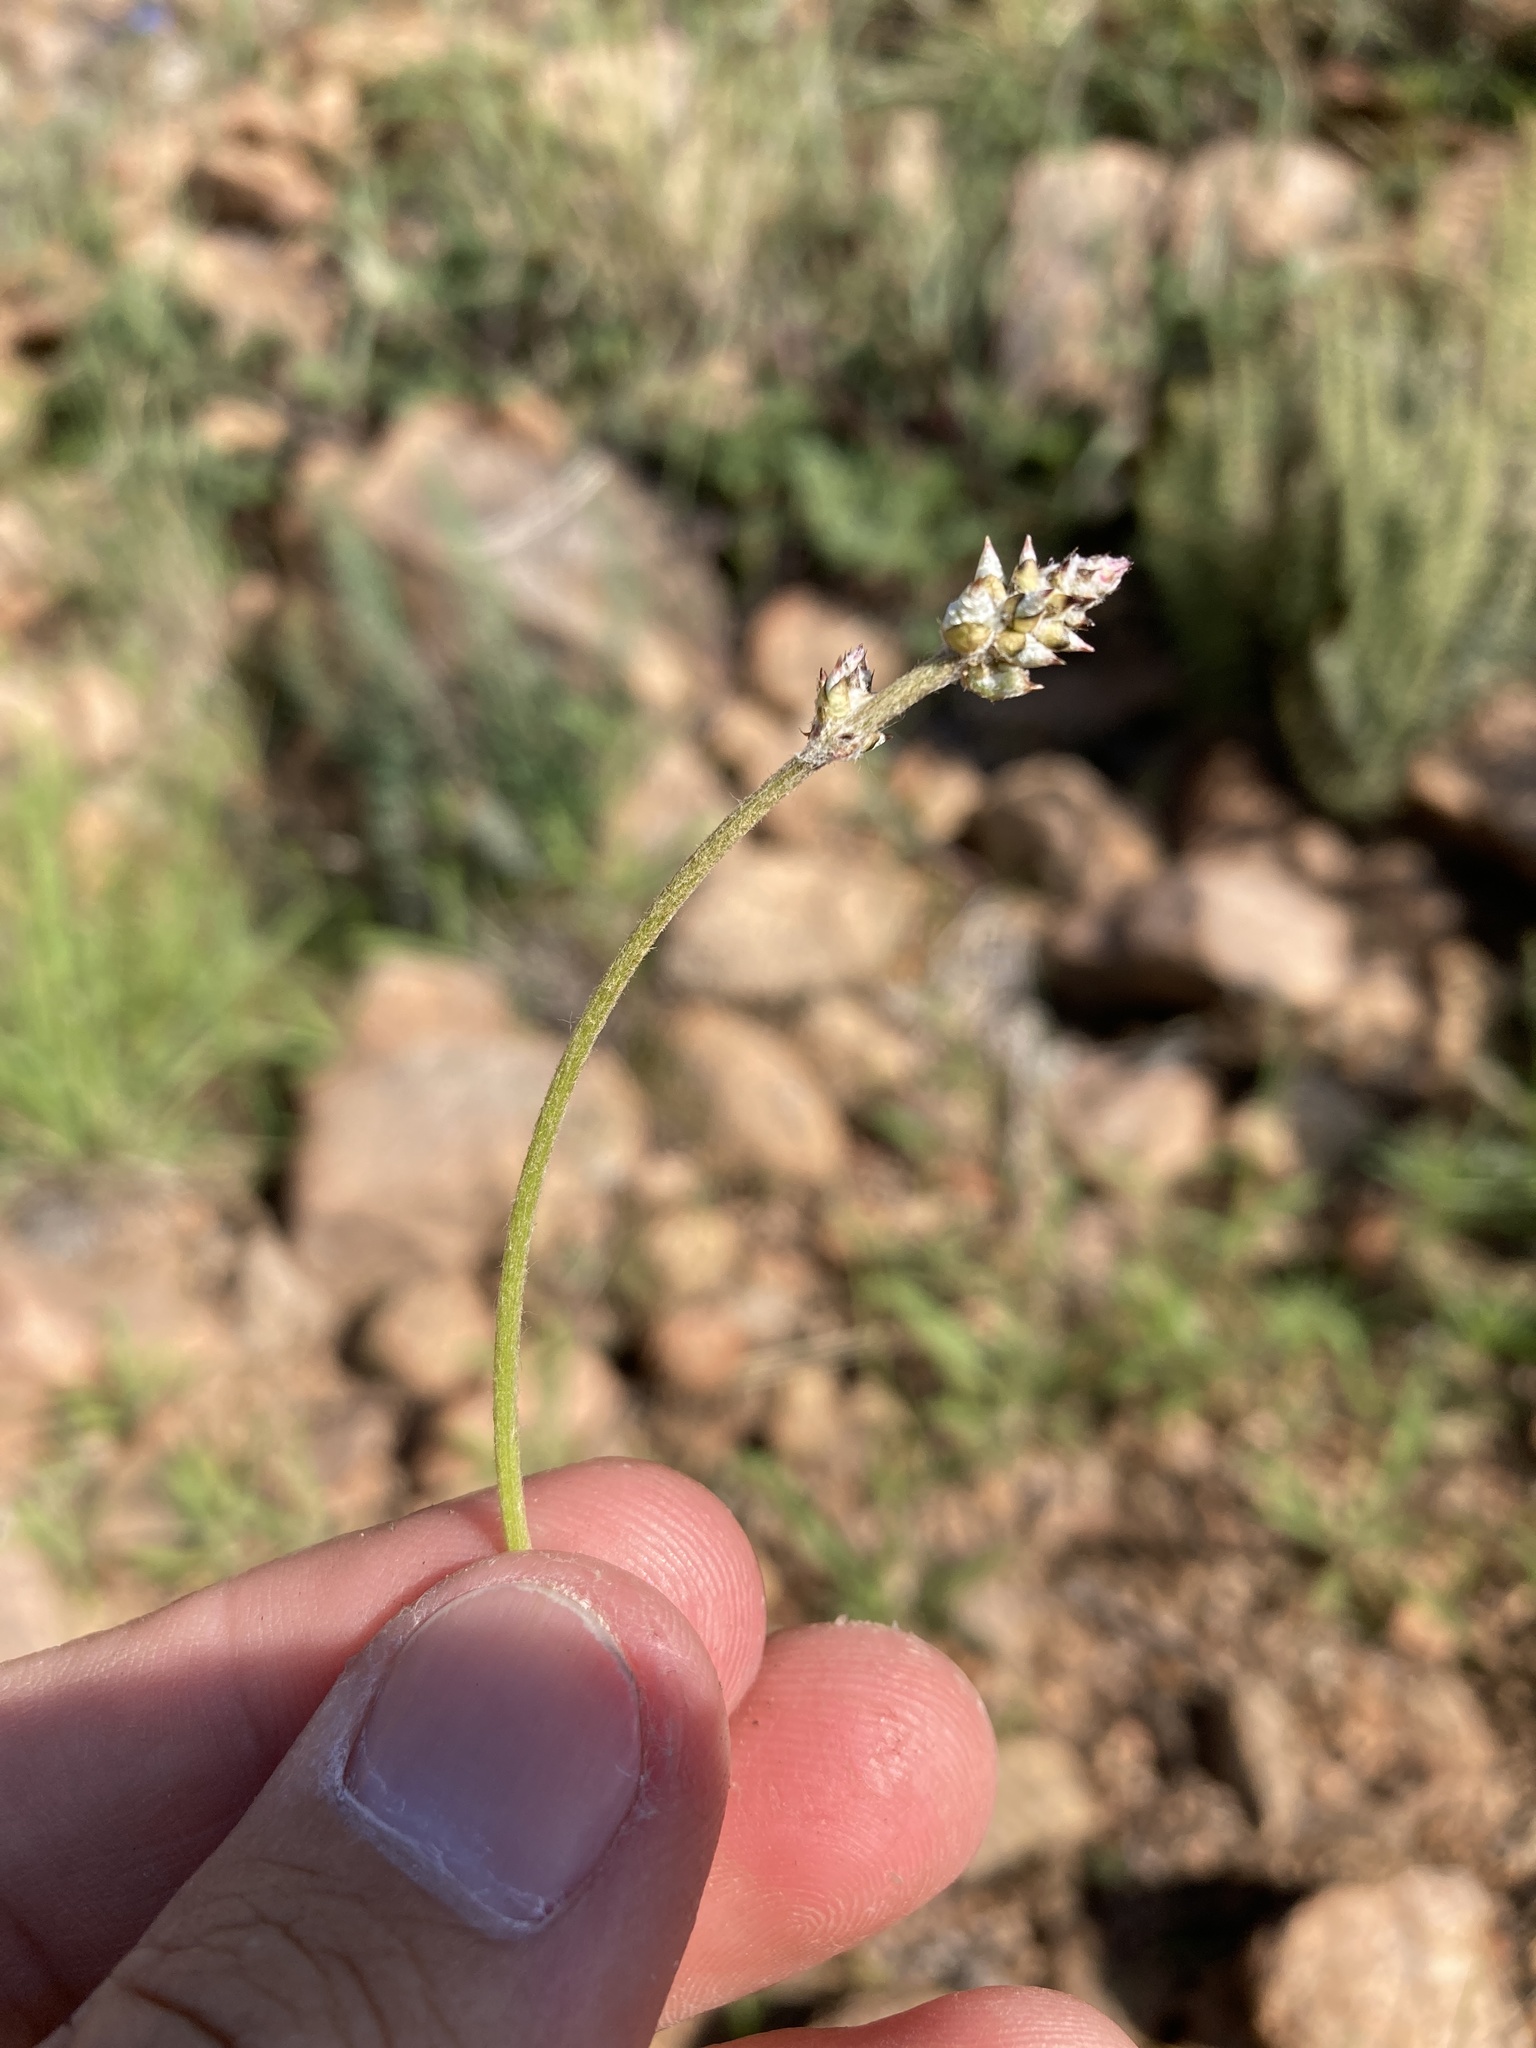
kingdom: Plantae
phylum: Tracheophyta
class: Magnoliopsida
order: Caryophyllales
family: Amaranthaceae
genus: Froelichia
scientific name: Froelichia gracilis
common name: Slender cottonweed
